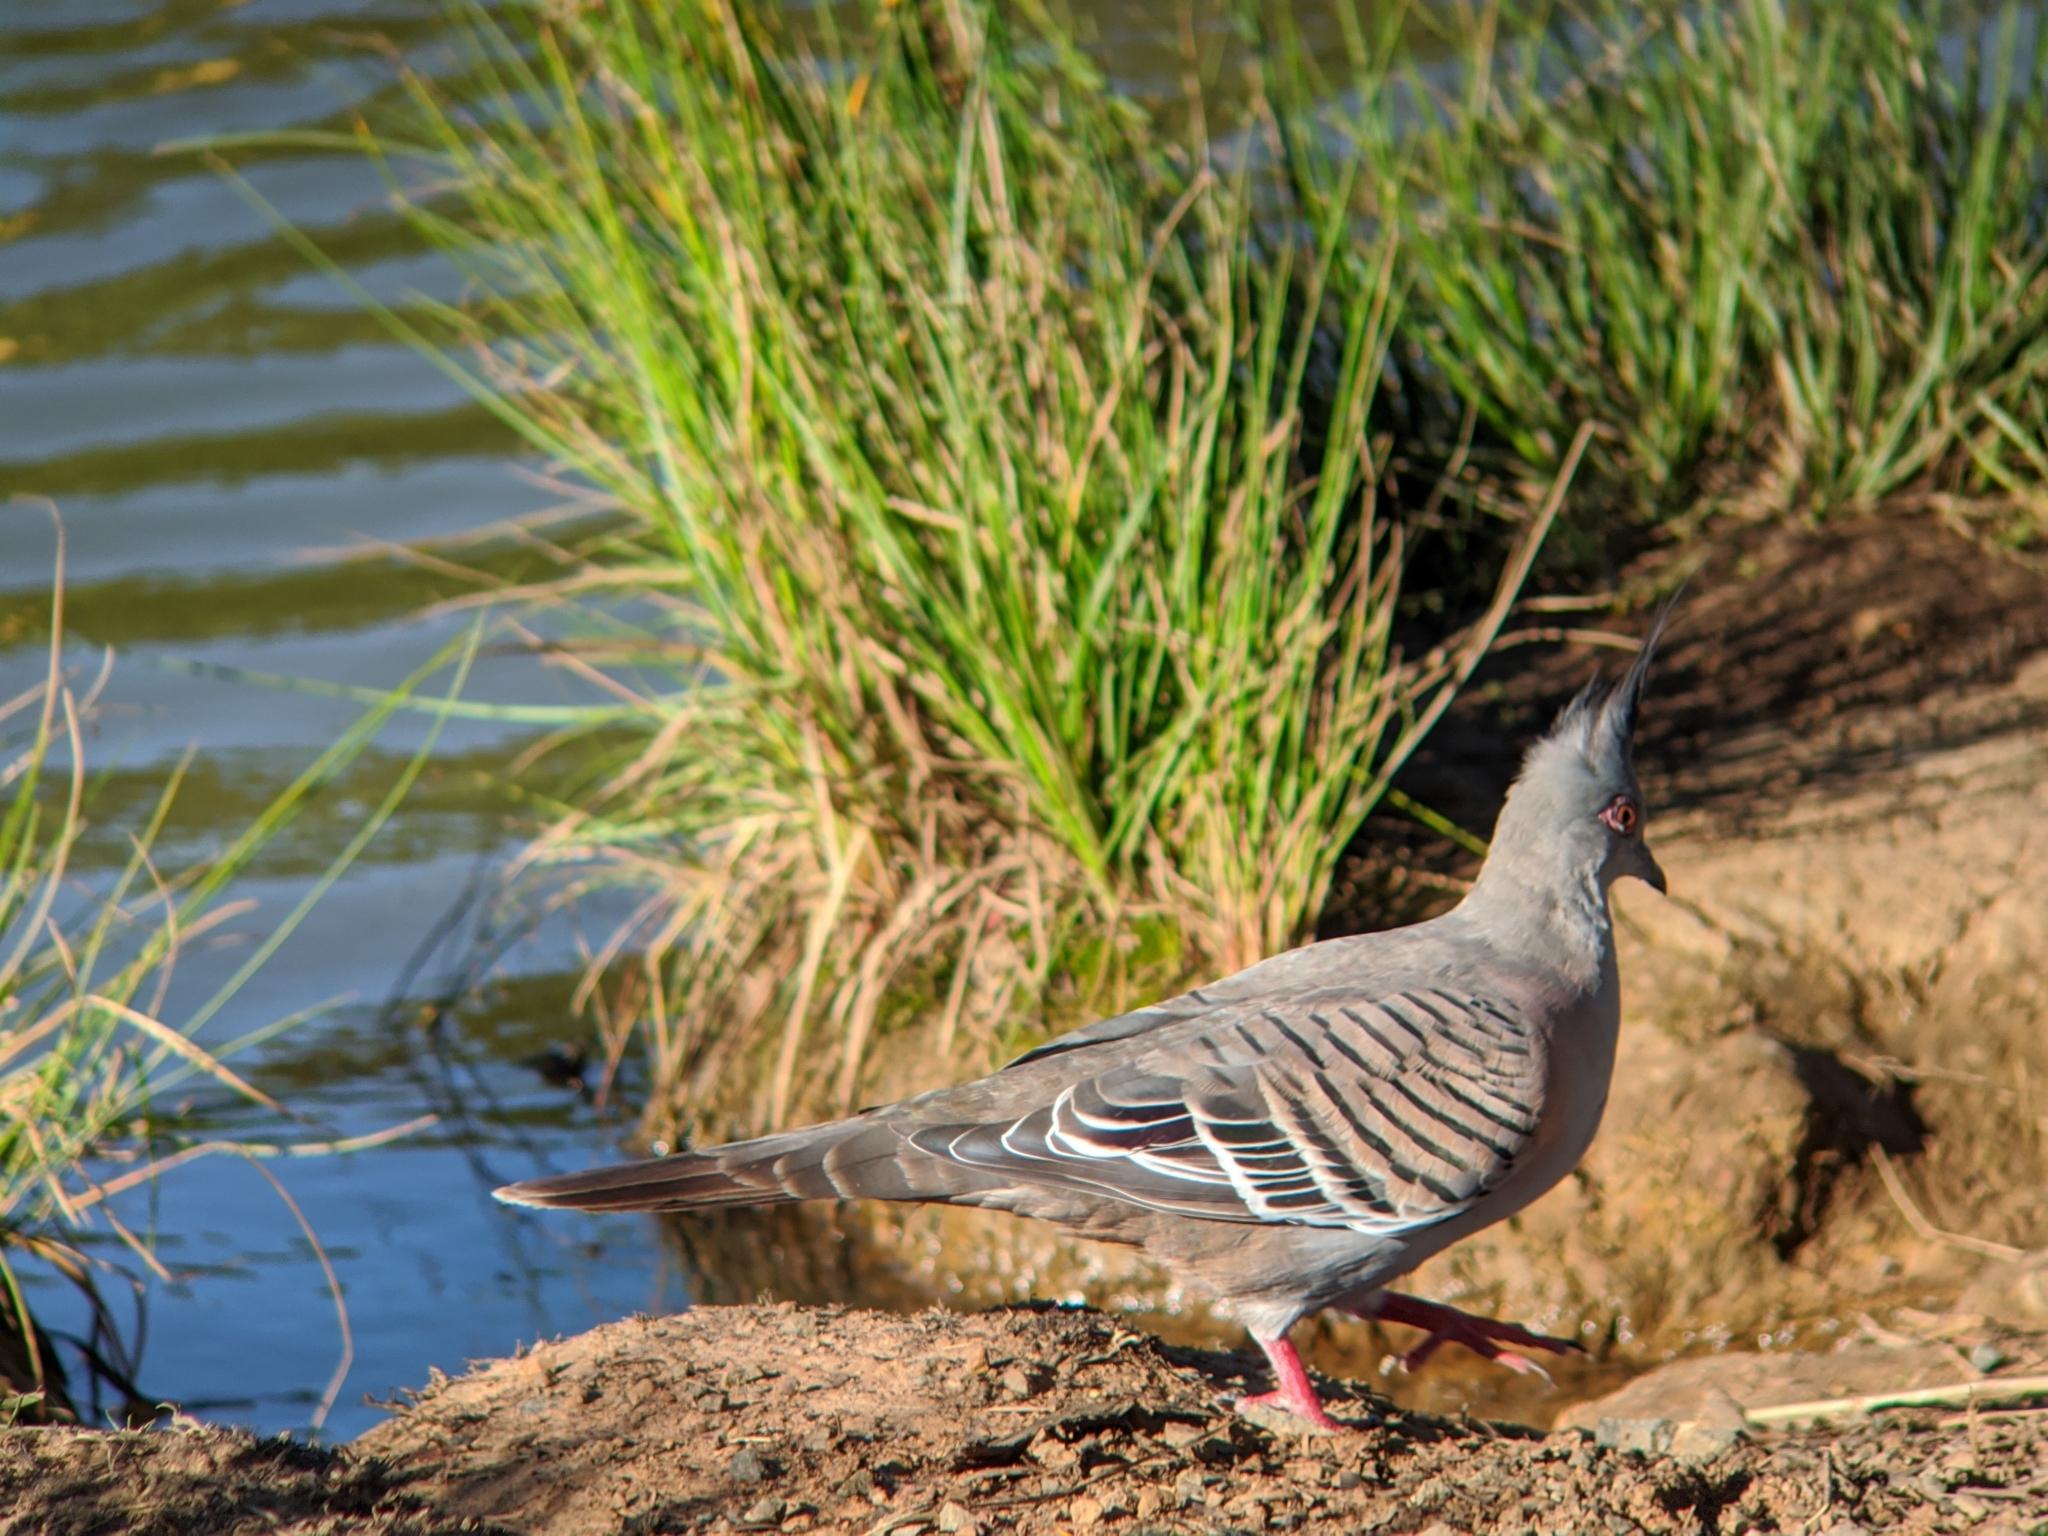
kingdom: Animalia
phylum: Chordata
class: Aves
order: Columbiformes
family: Columbidae
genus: Ocyphaps
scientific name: Ocyphaps lophotes
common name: Crested pigeon
